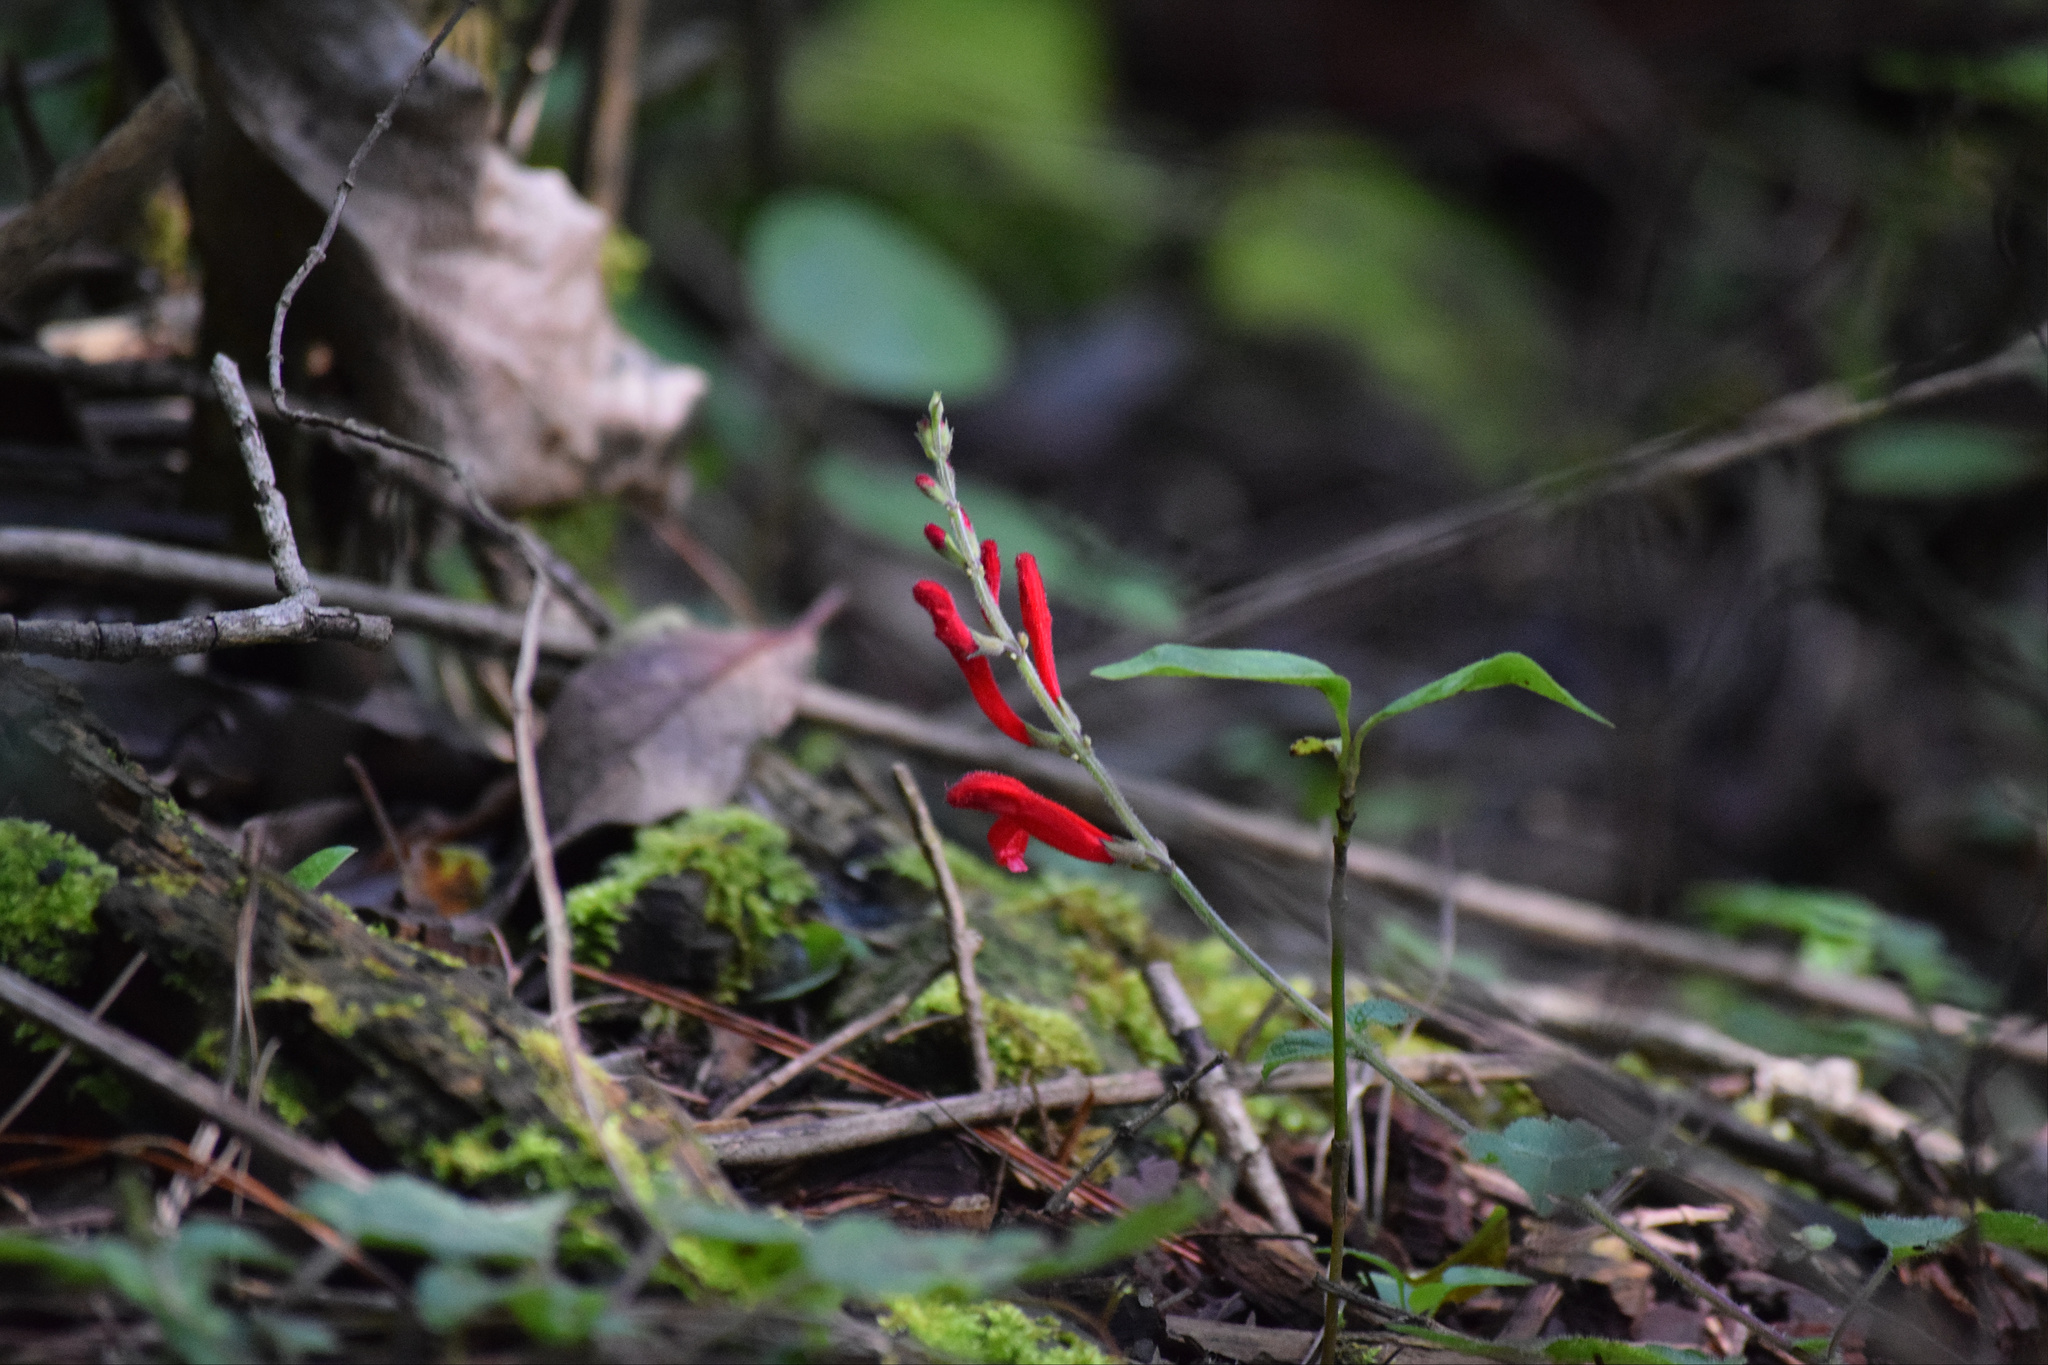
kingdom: Plantae
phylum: Tracheophyta
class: Magnoliopsida
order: Lamiales
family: Lamiaceae
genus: Salvia
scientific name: Salvia elegans
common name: Pineapple sage
